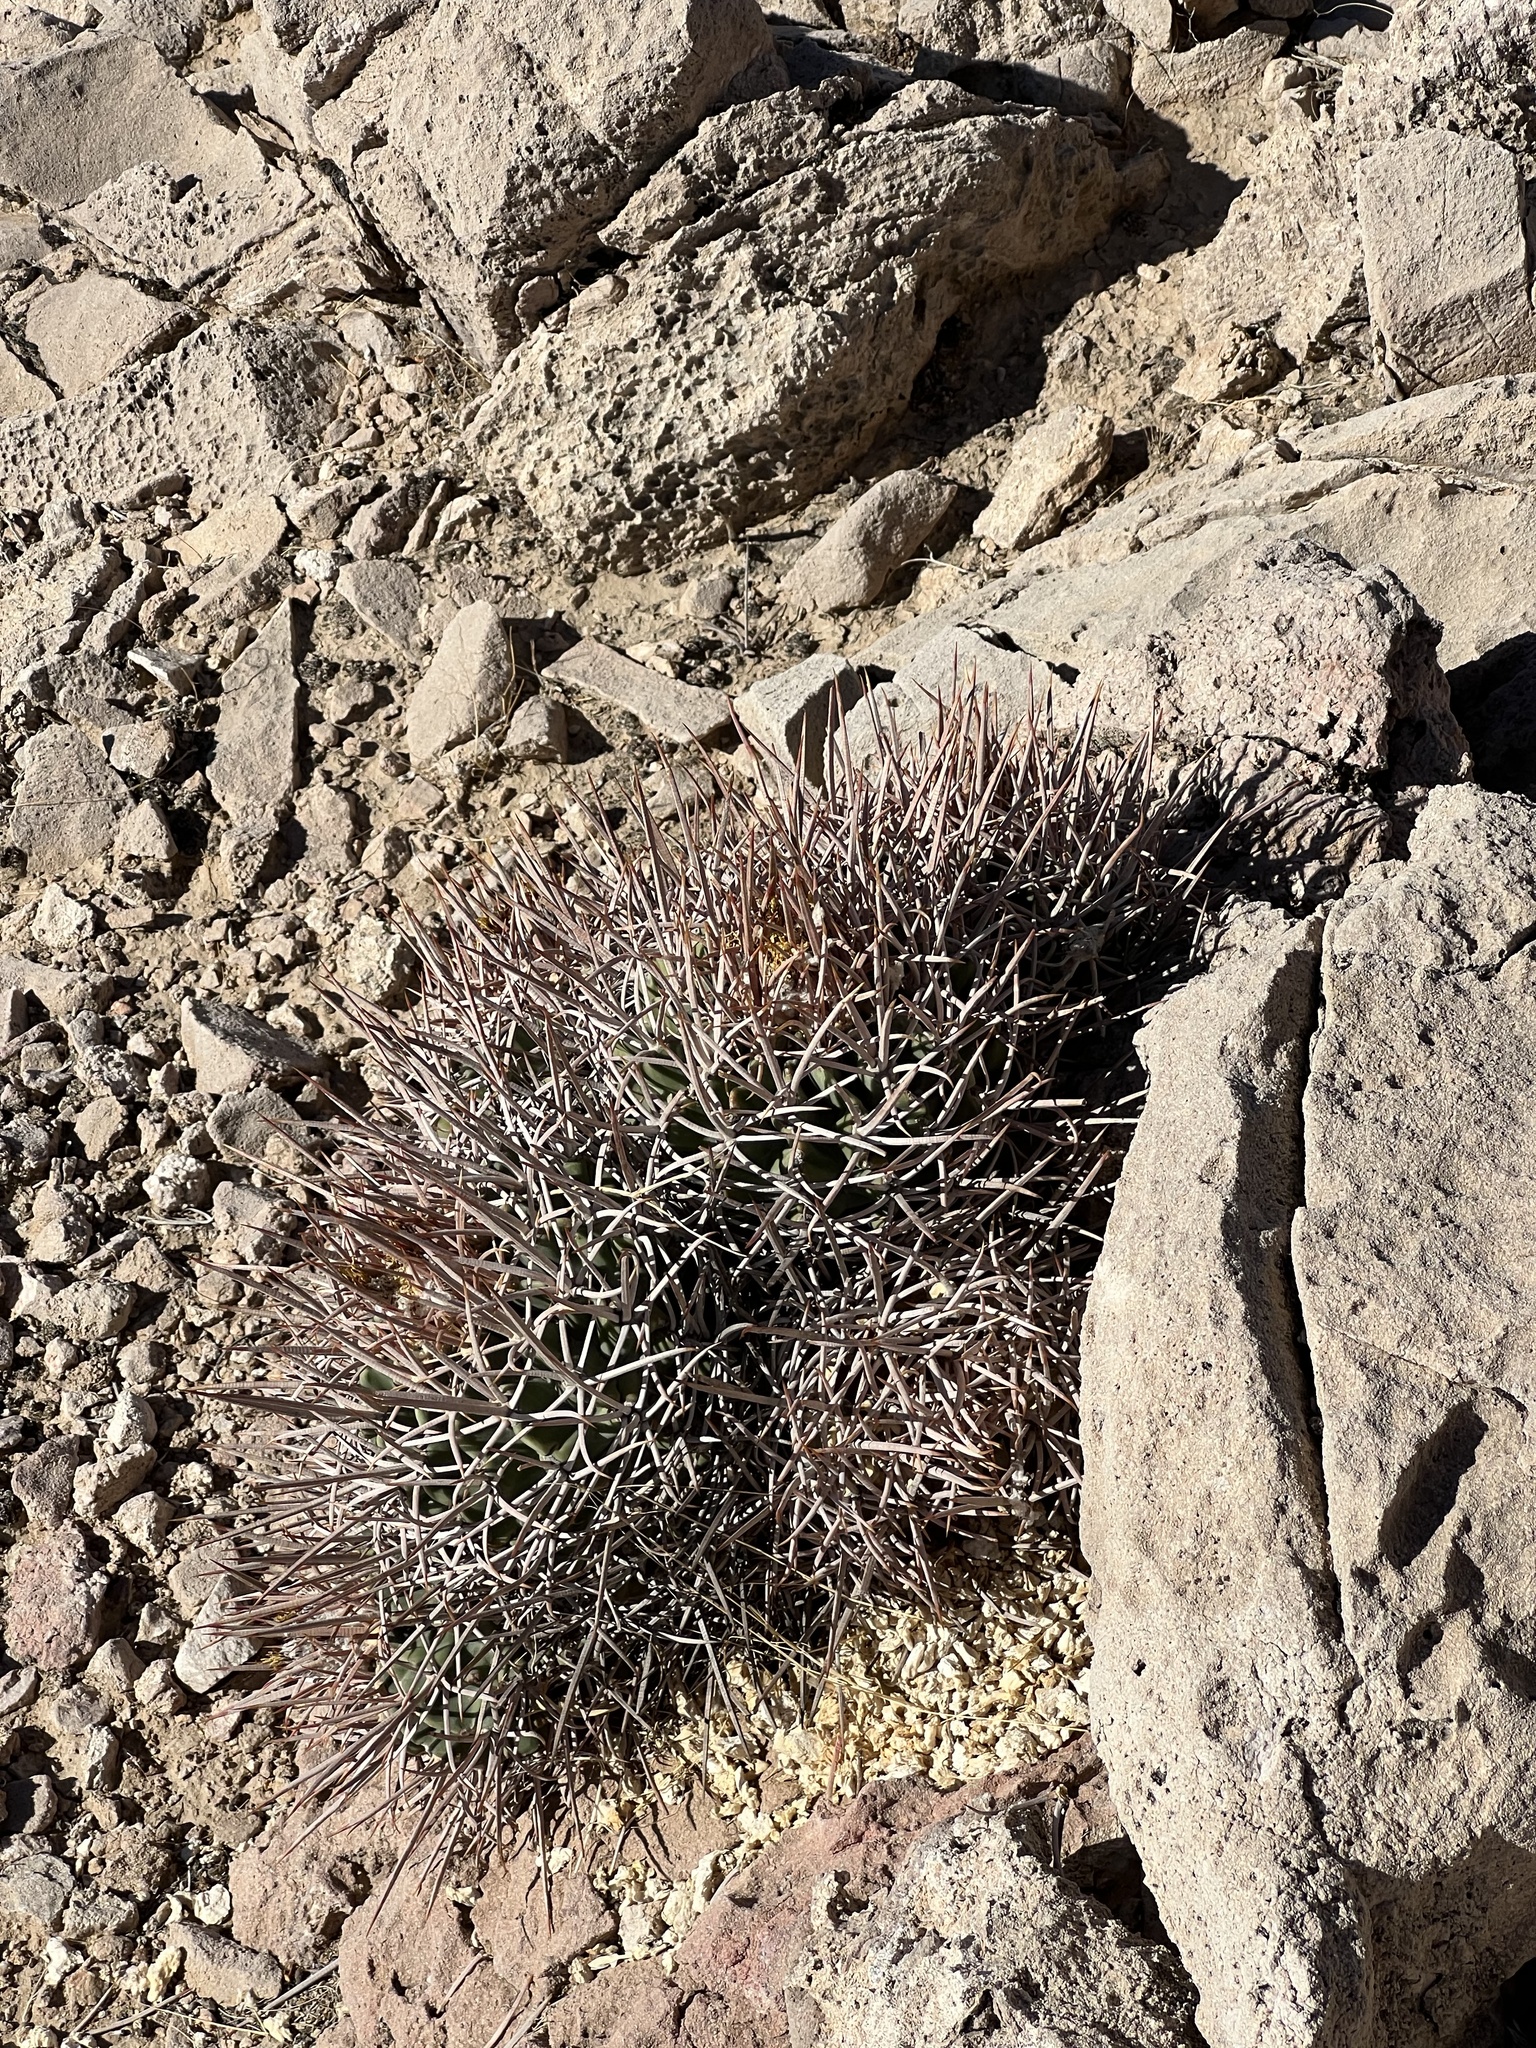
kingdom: Plantae
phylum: Tracheophyta
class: Magnoliopsida
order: Caryophyllales
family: Cactaceae
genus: Echinocactus
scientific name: Echinocactus polycephalus
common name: Cottontop cactus
